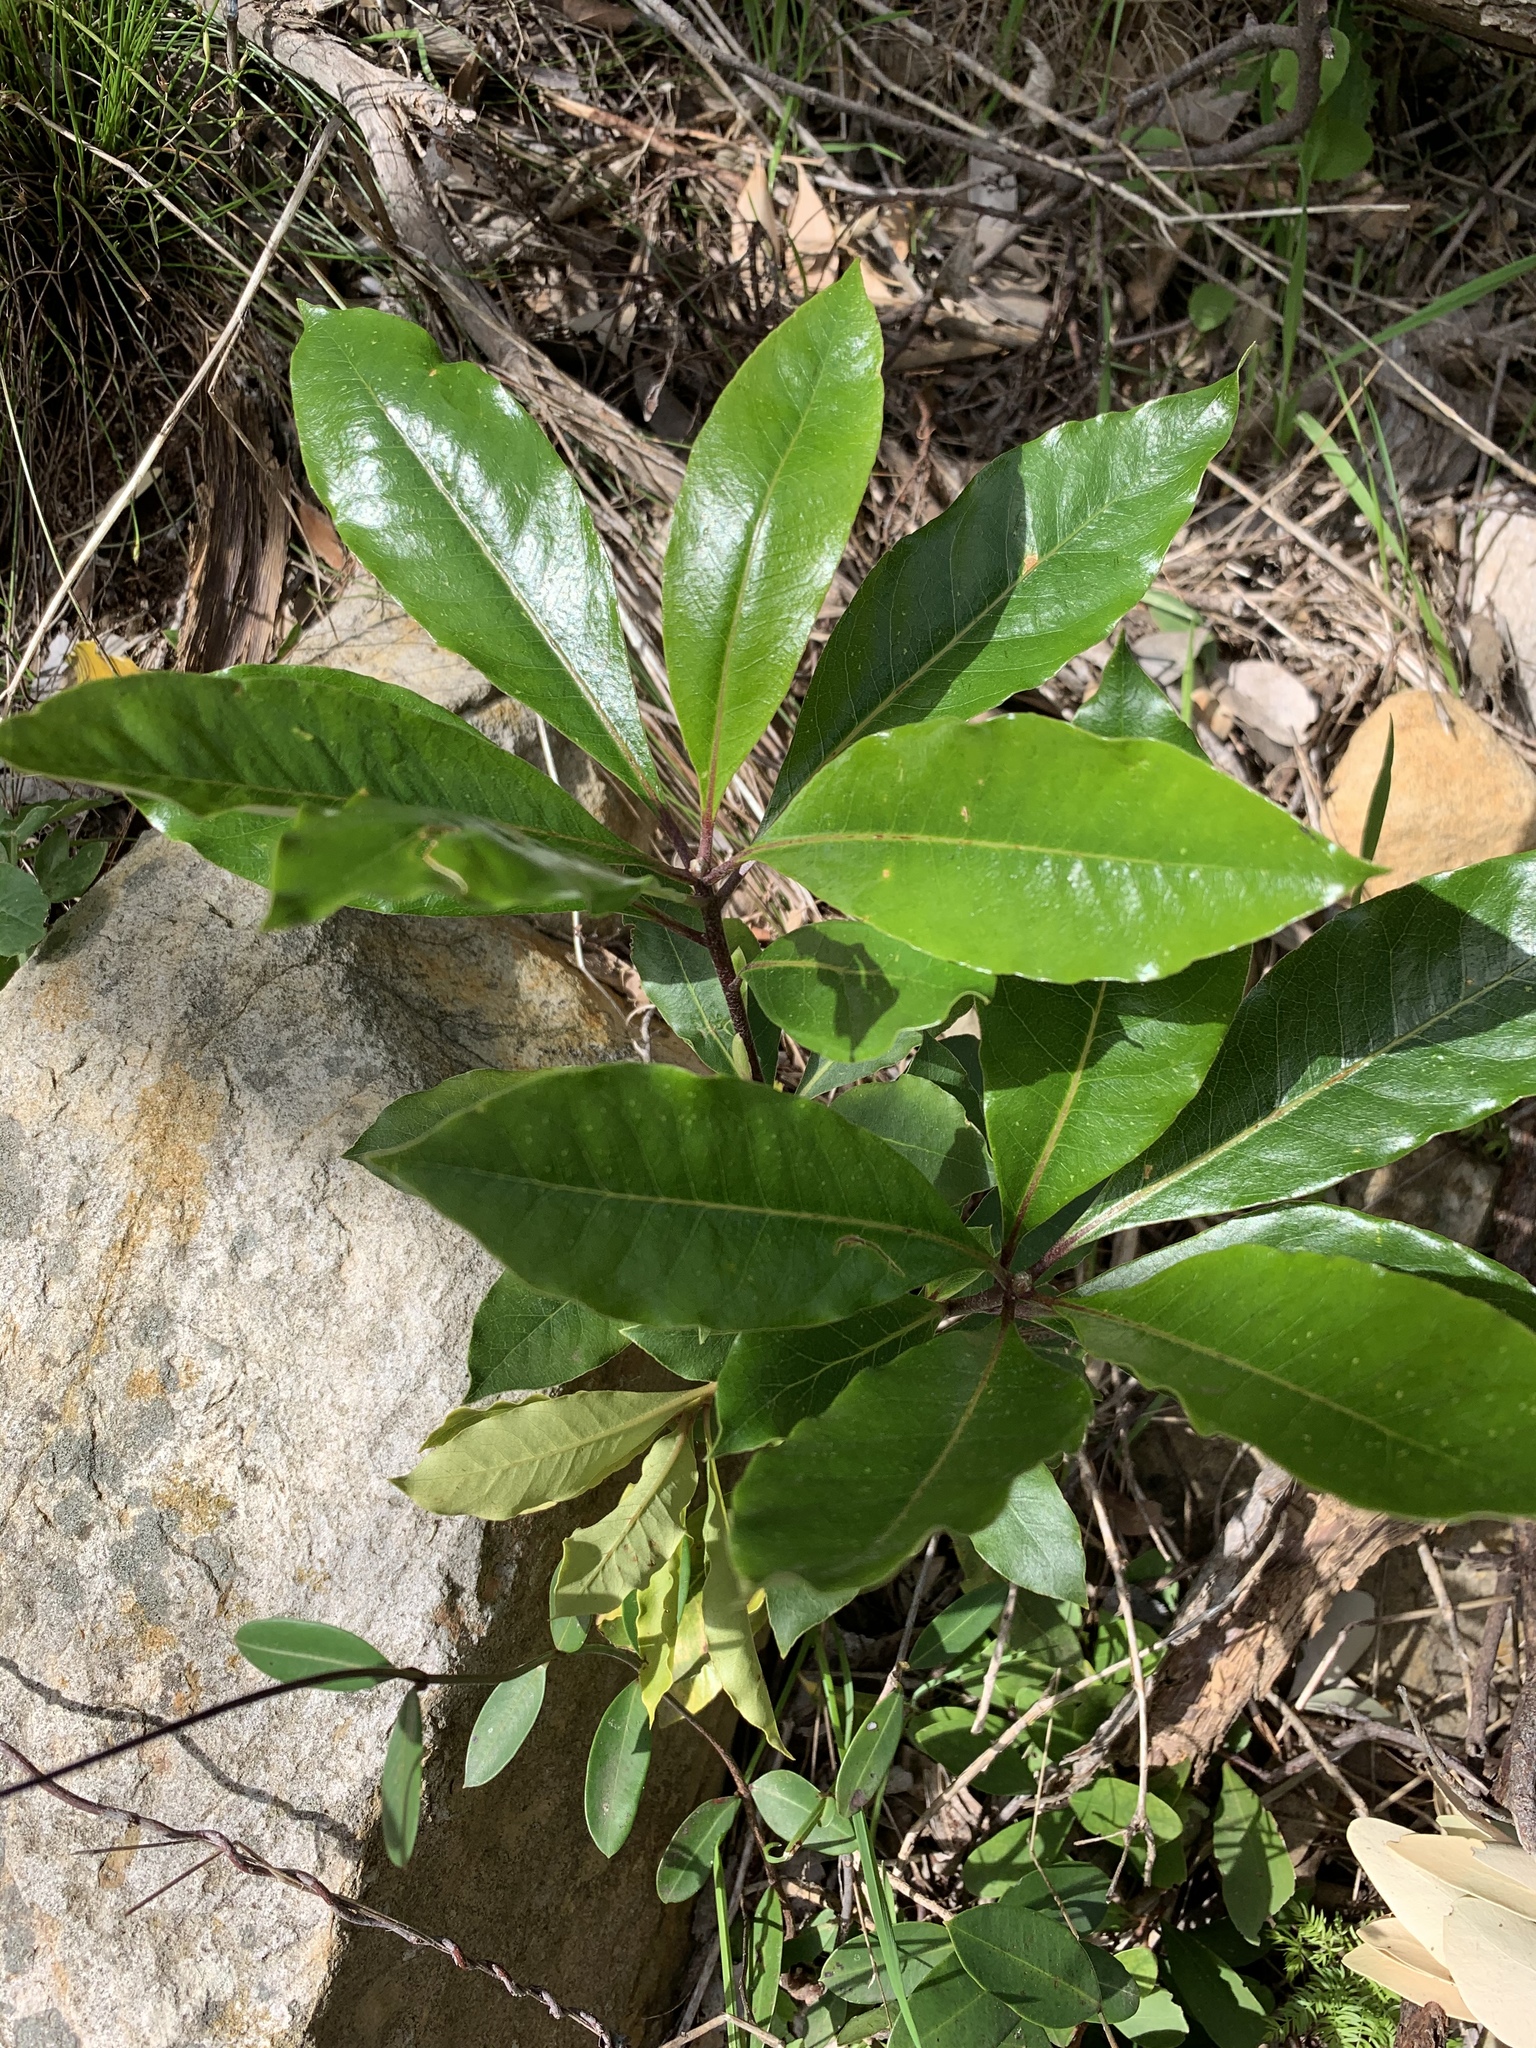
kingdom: Plantae
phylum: Tracheophyta
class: Magnoliopsida
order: Apiales
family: Pittosporaceae
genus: Pittosporum
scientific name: Pittosporum undulatum
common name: Australian cheesewood
